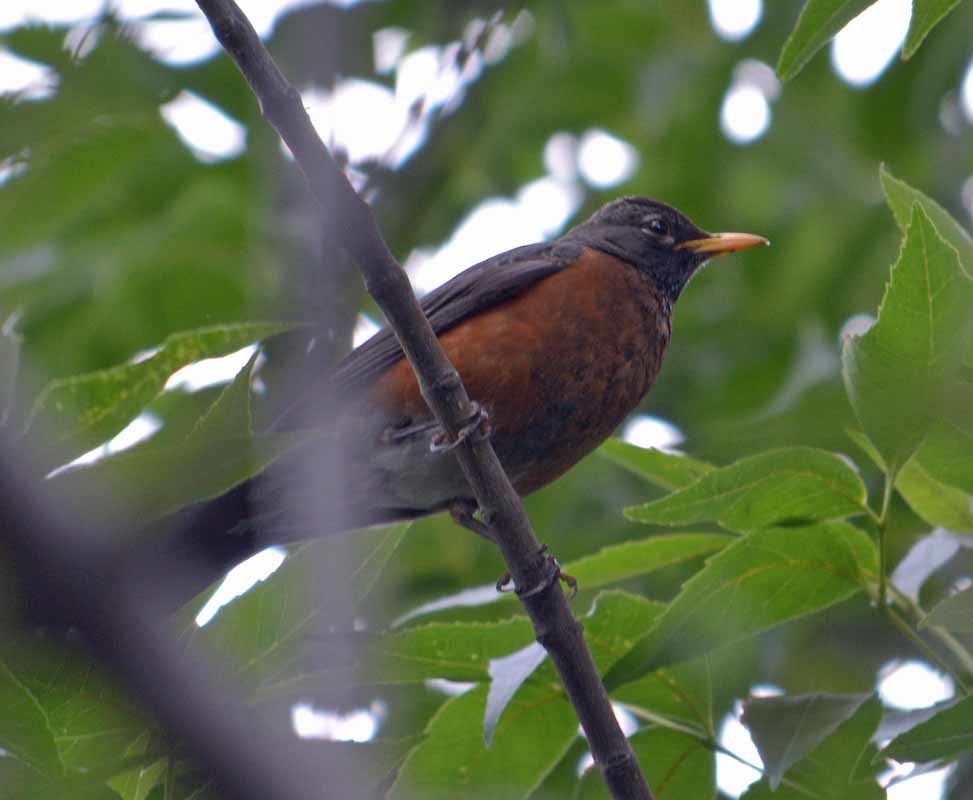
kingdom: Animalia
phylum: Chordata
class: Aves
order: Passeriformes
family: Turdidae
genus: Turdus
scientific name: Turdus migratorius
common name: American robin
